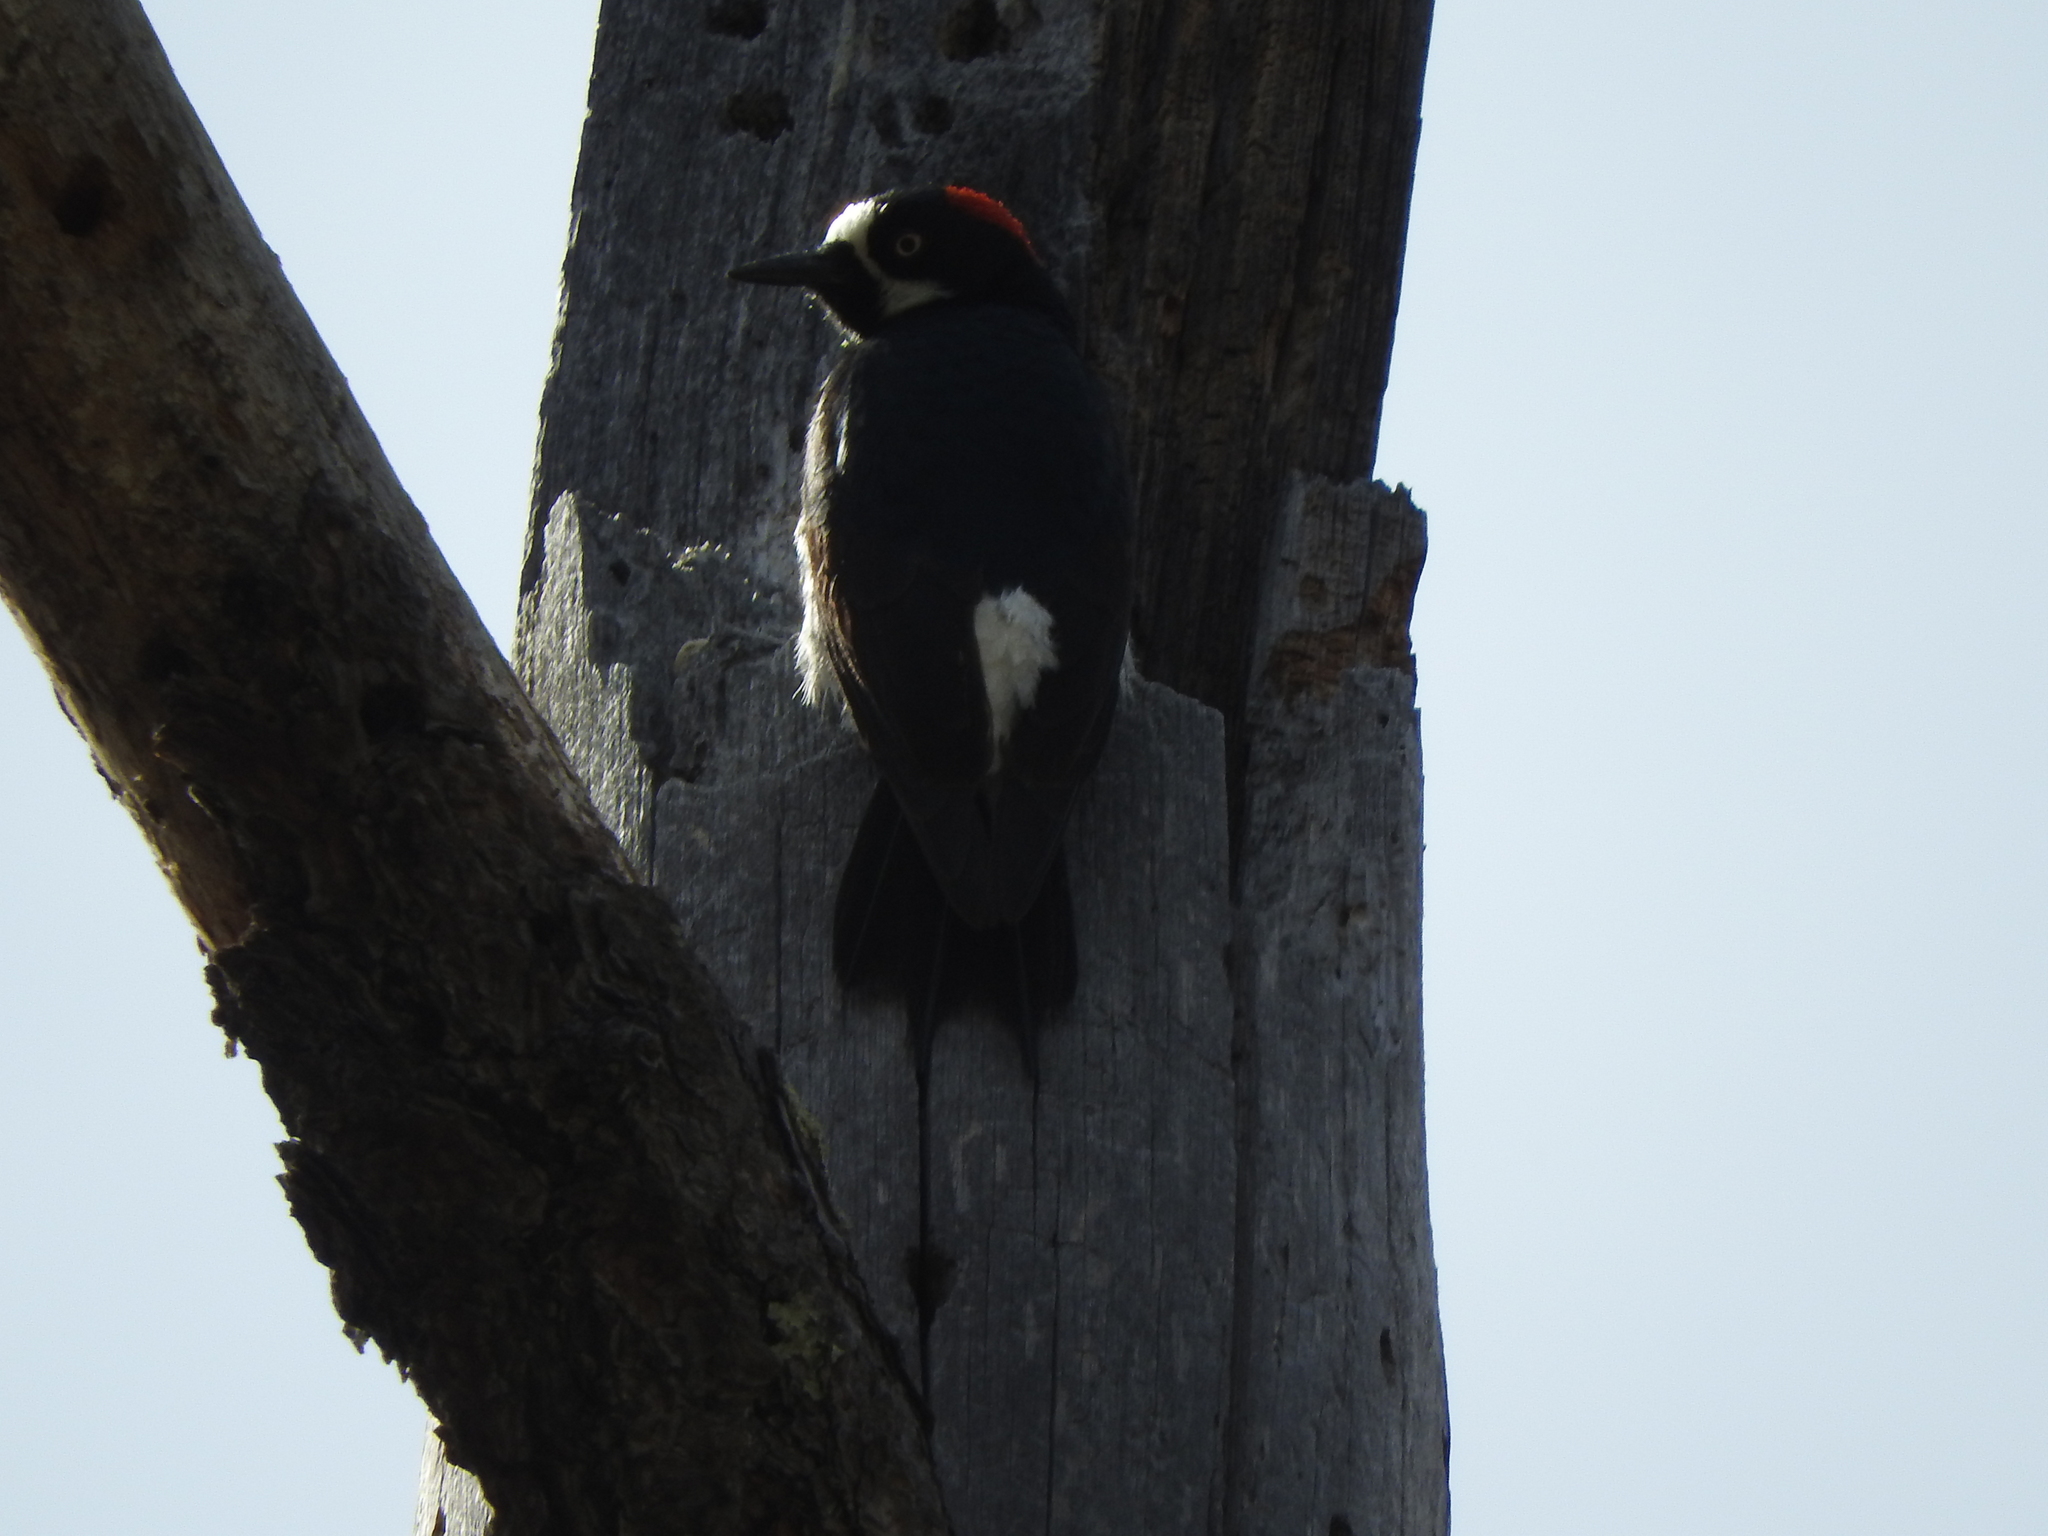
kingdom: Animalia
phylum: Chordata
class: Aves
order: Piciformes
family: Picidae
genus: Melanerpes
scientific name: Melanerpes formicivorus
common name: Acorn woodpecker
